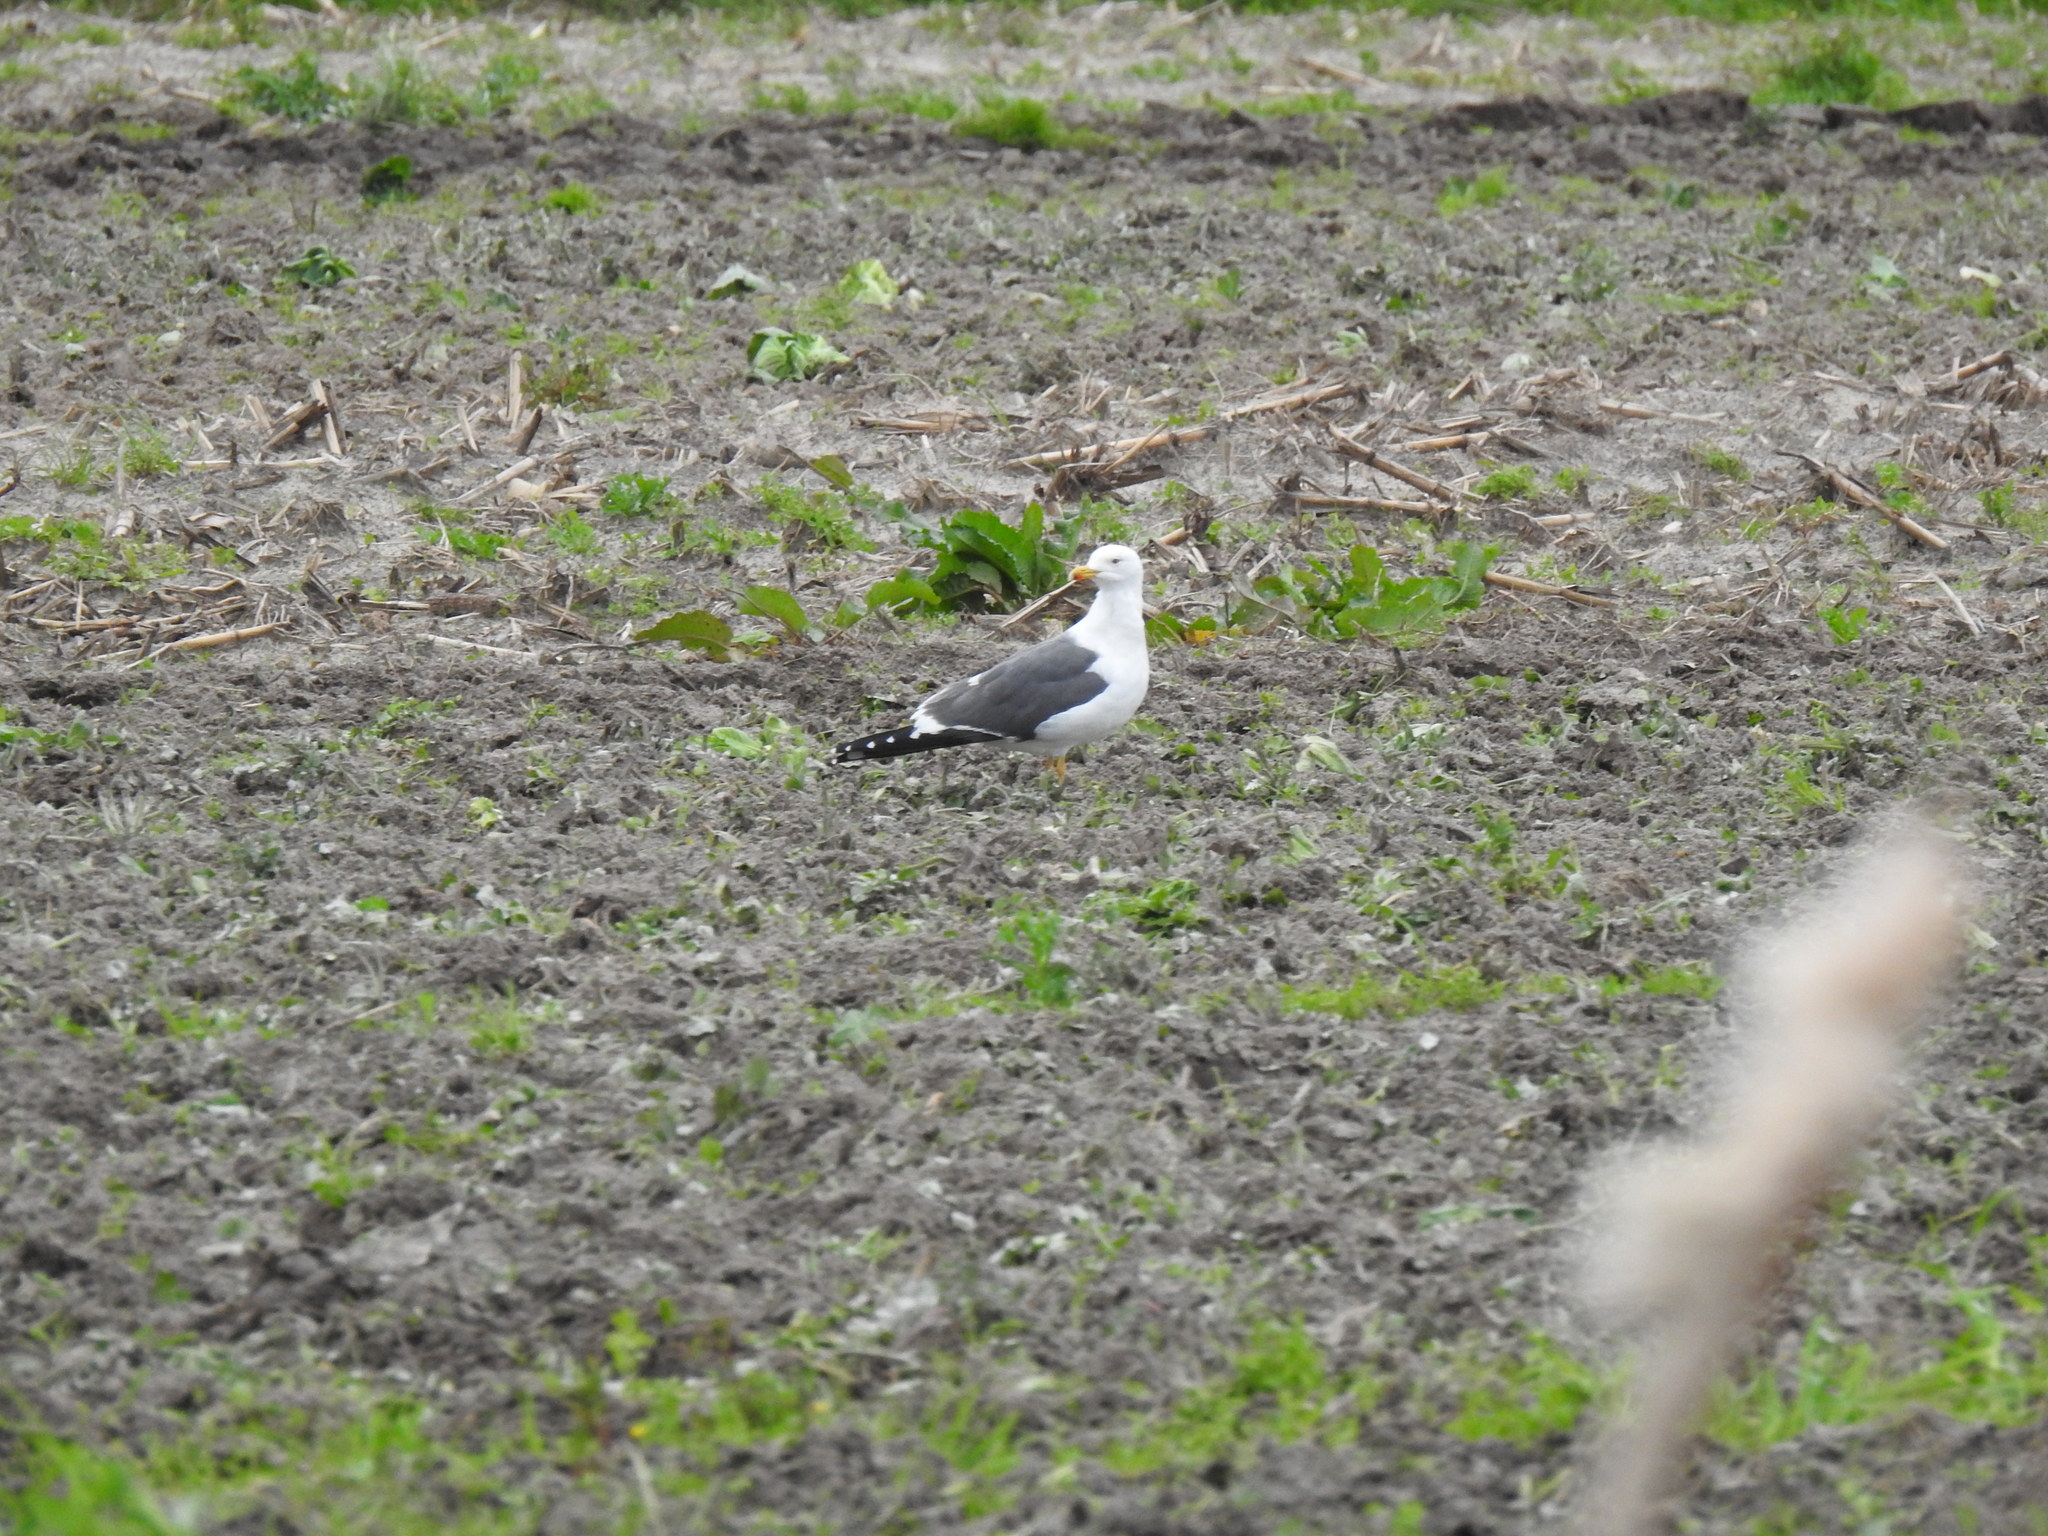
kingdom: Animalia
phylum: Chordata
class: Aves
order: Charadriiformes
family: Laridae
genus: Larus
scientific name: Larus fuscus
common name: Lesser black-backed gull
